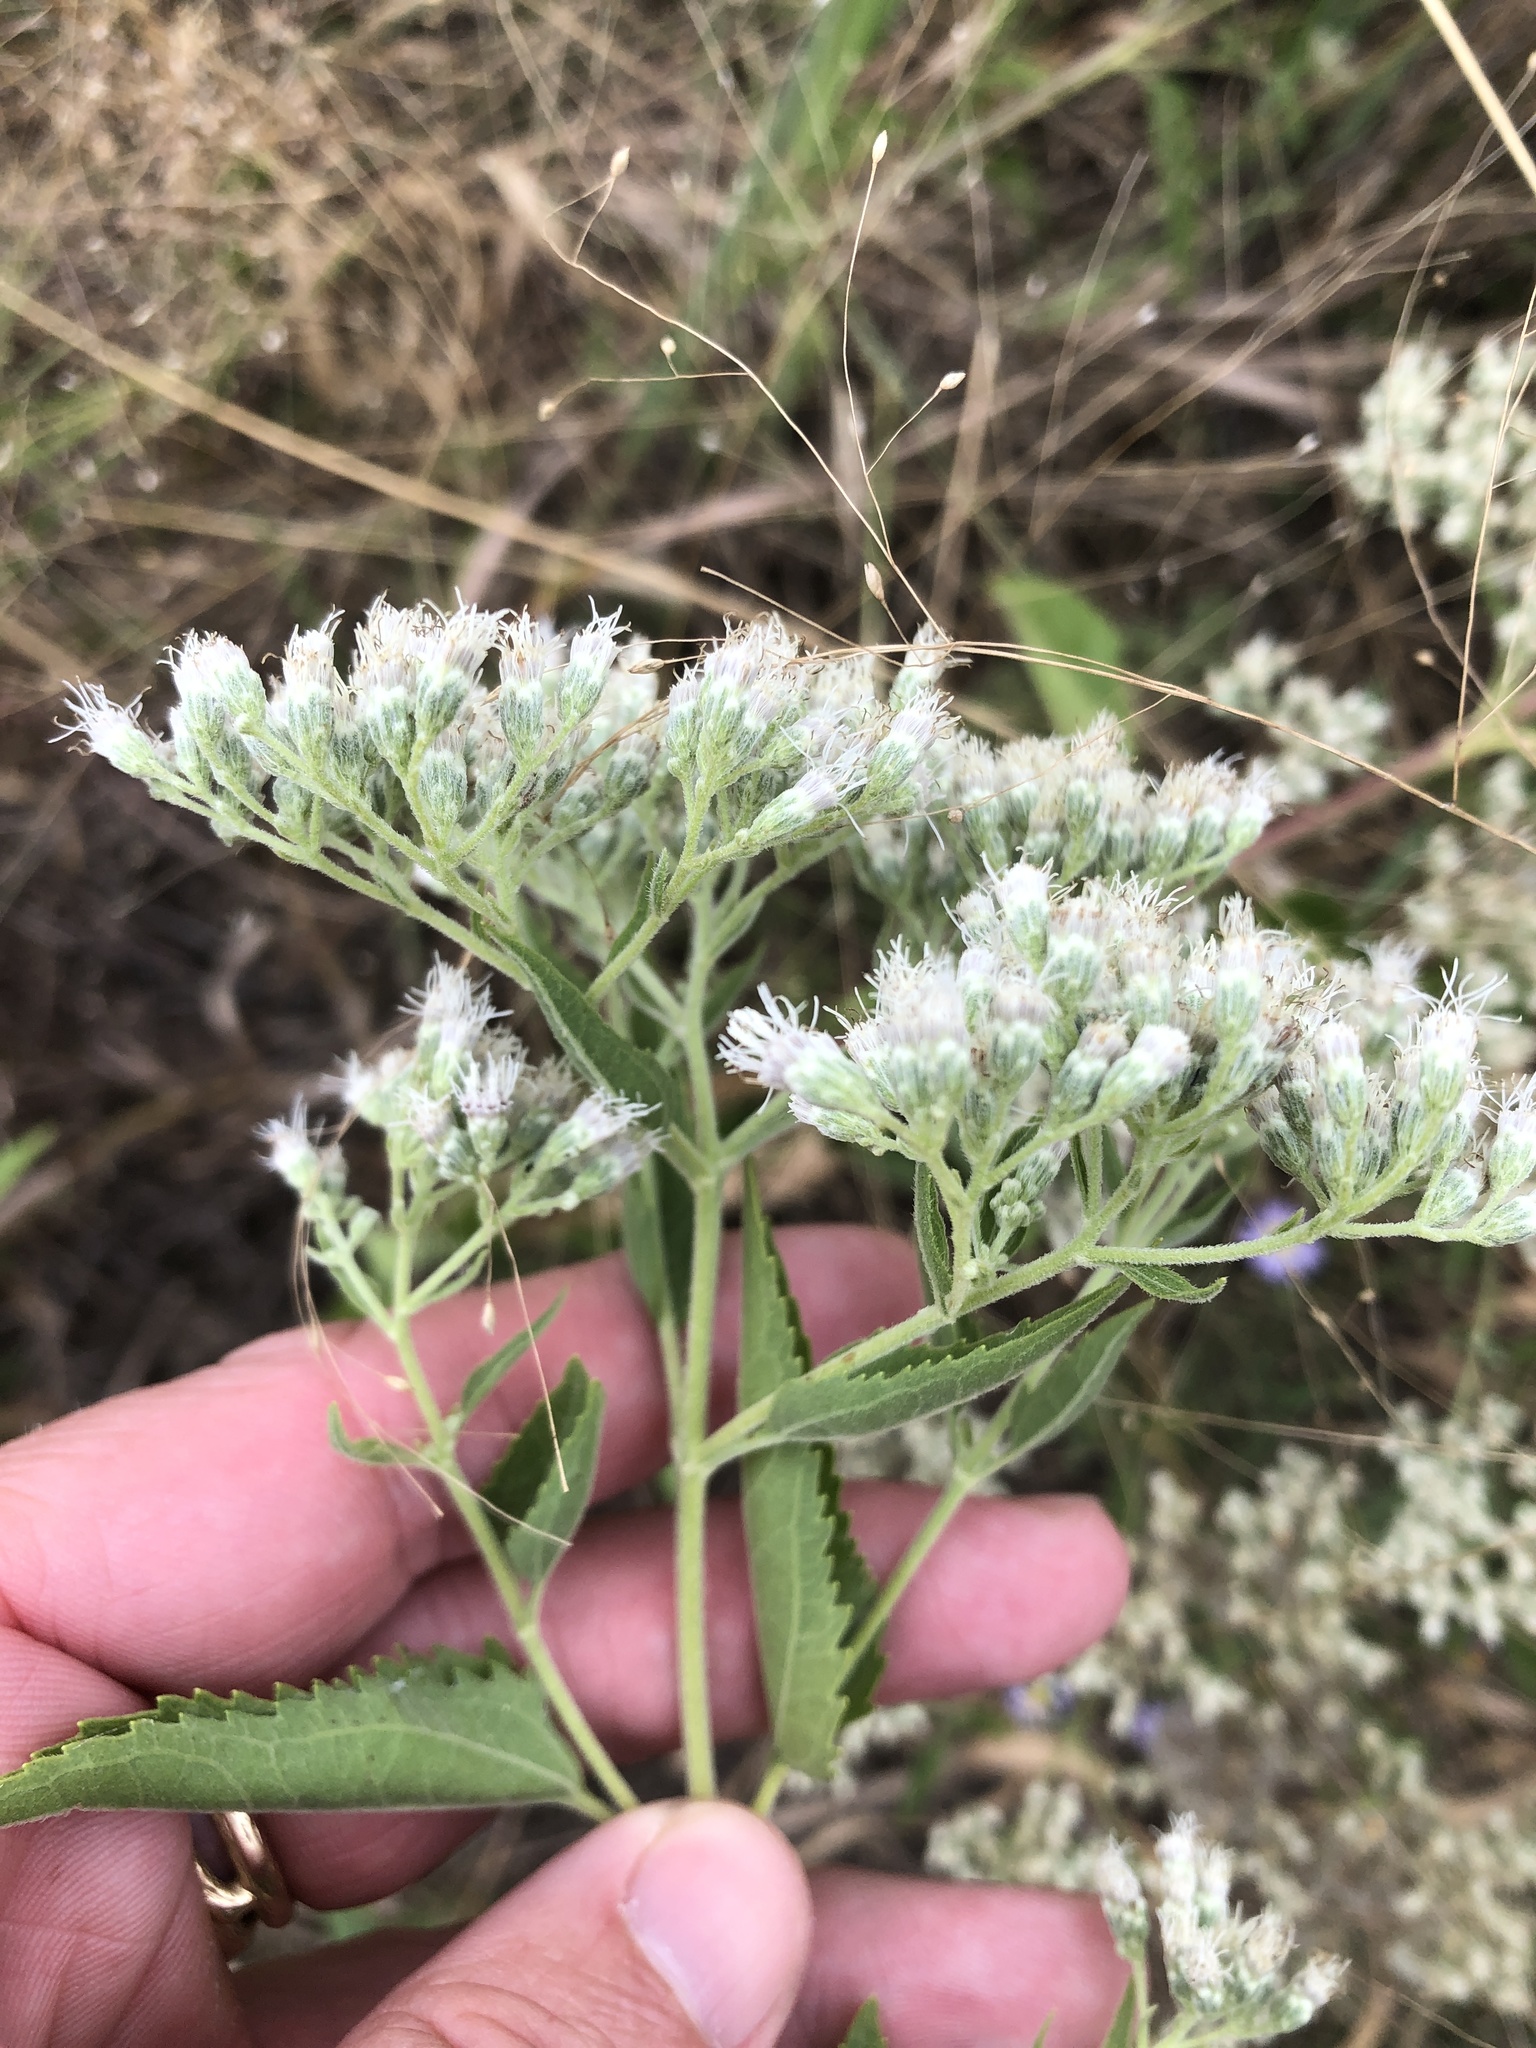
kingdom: Plantae
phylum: Tracheophyta
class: Magnoliopsida
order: Asterales
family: Asteraceae
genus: Eupatorium
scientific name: Eupatorium serotinum
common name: Late boneset
